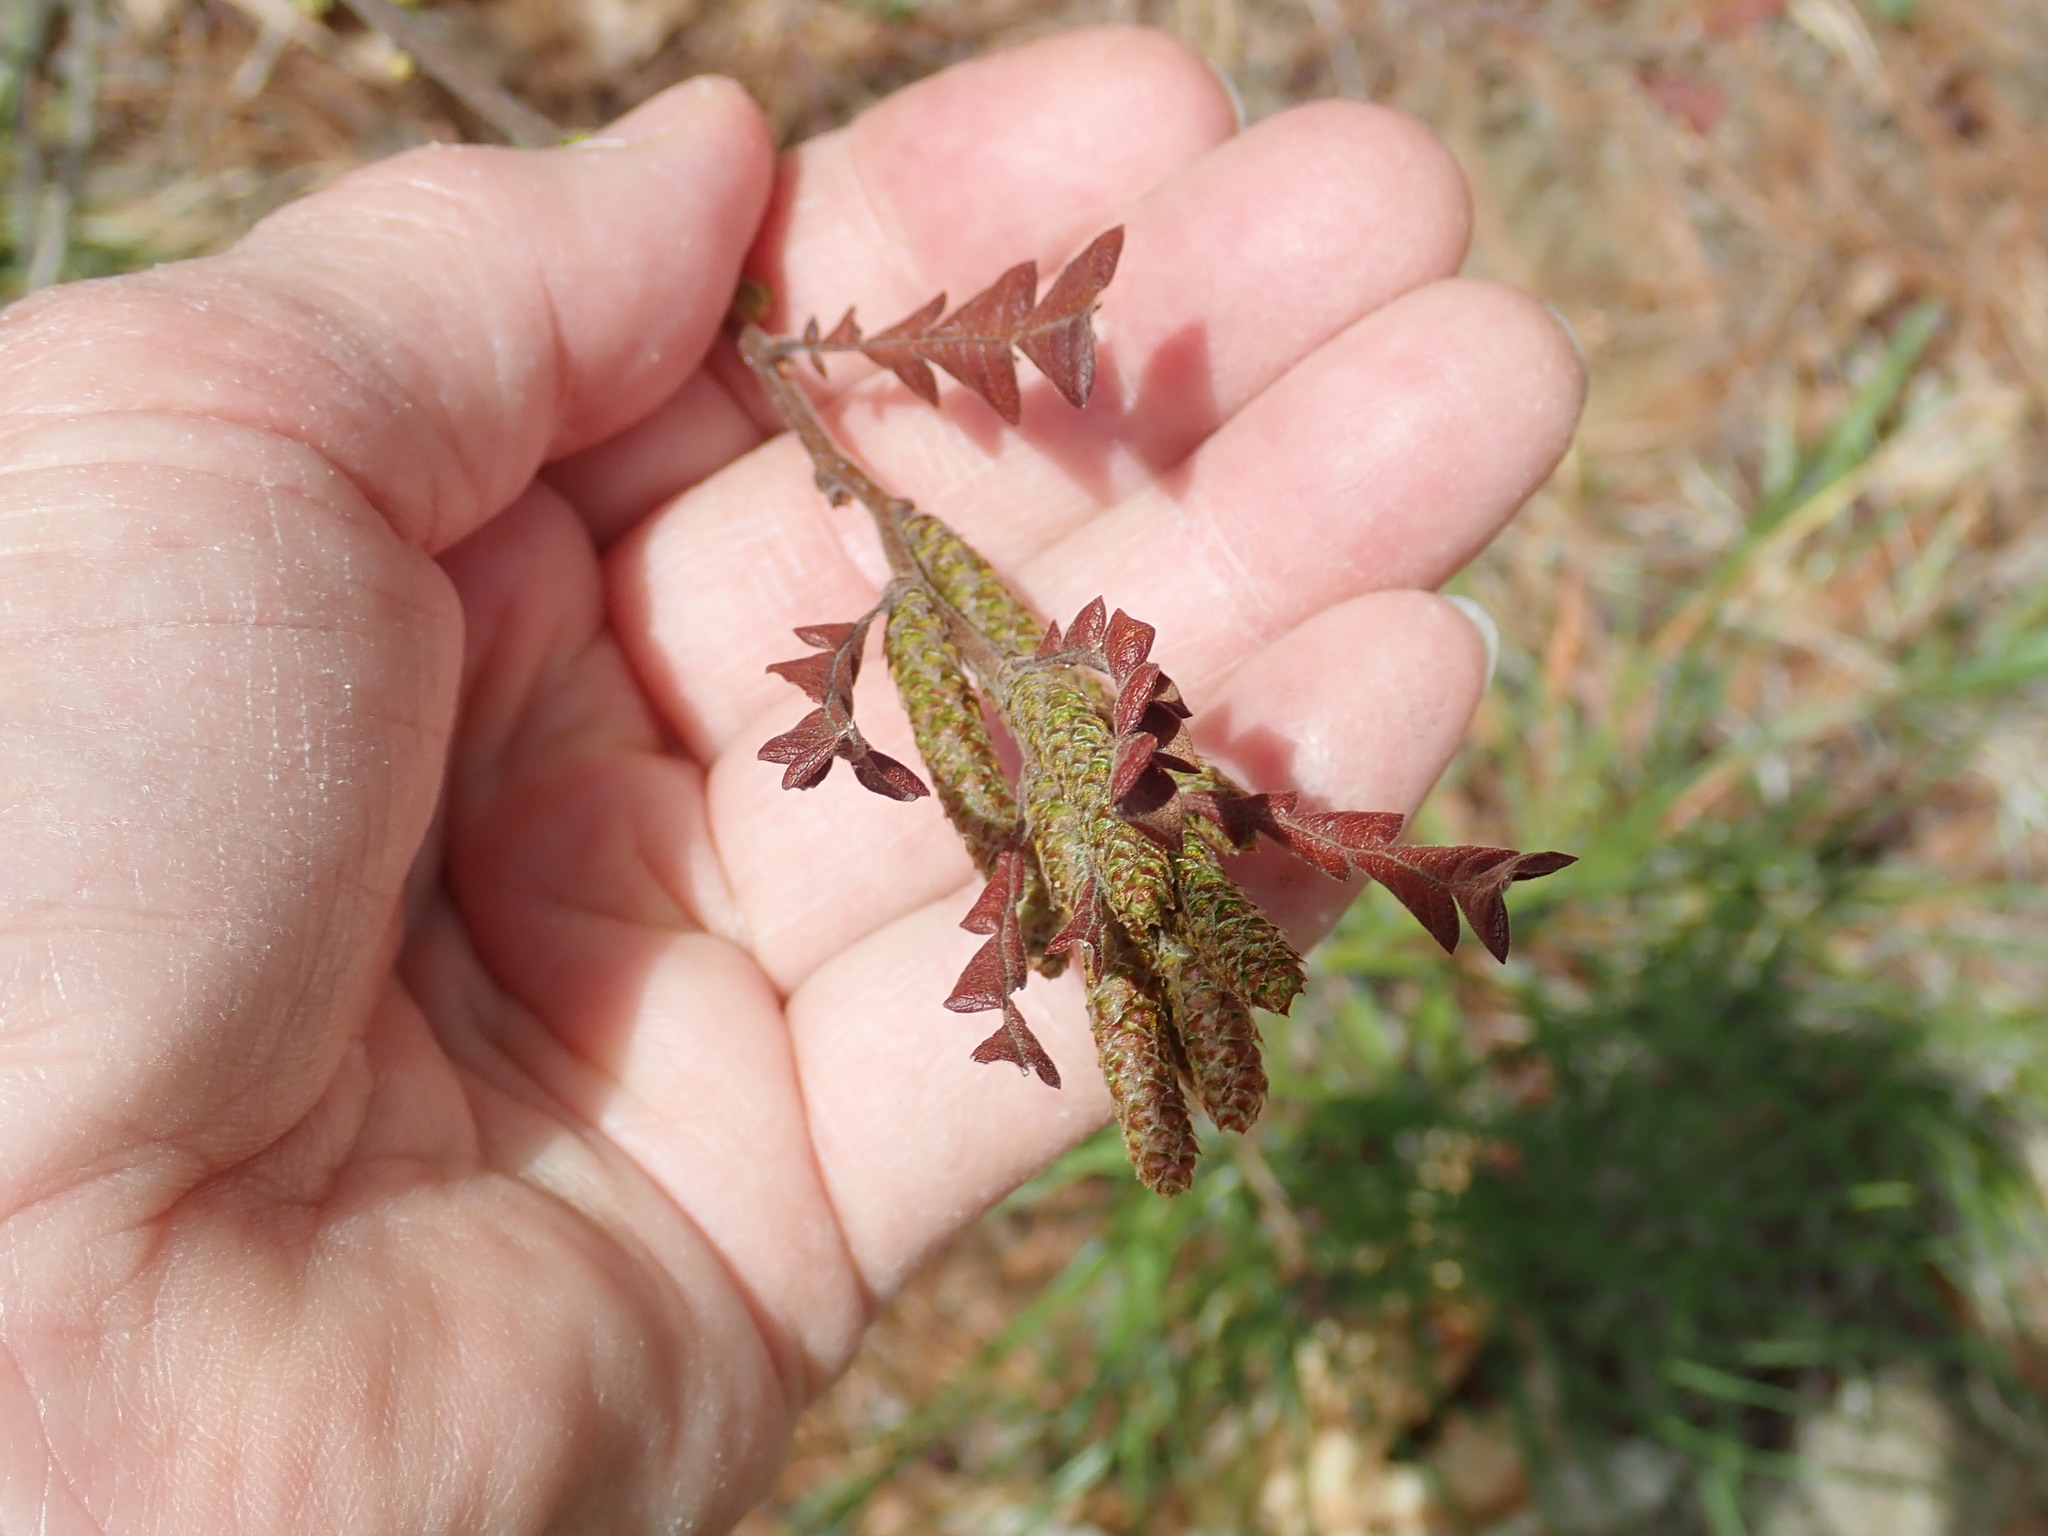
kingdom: Plantae
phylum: Tracheophyta
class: Magnoliopsida
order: Fagales
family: Myricaceae
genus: Comptonia
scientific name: Comptonia peregrina
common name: Sweet-fern
